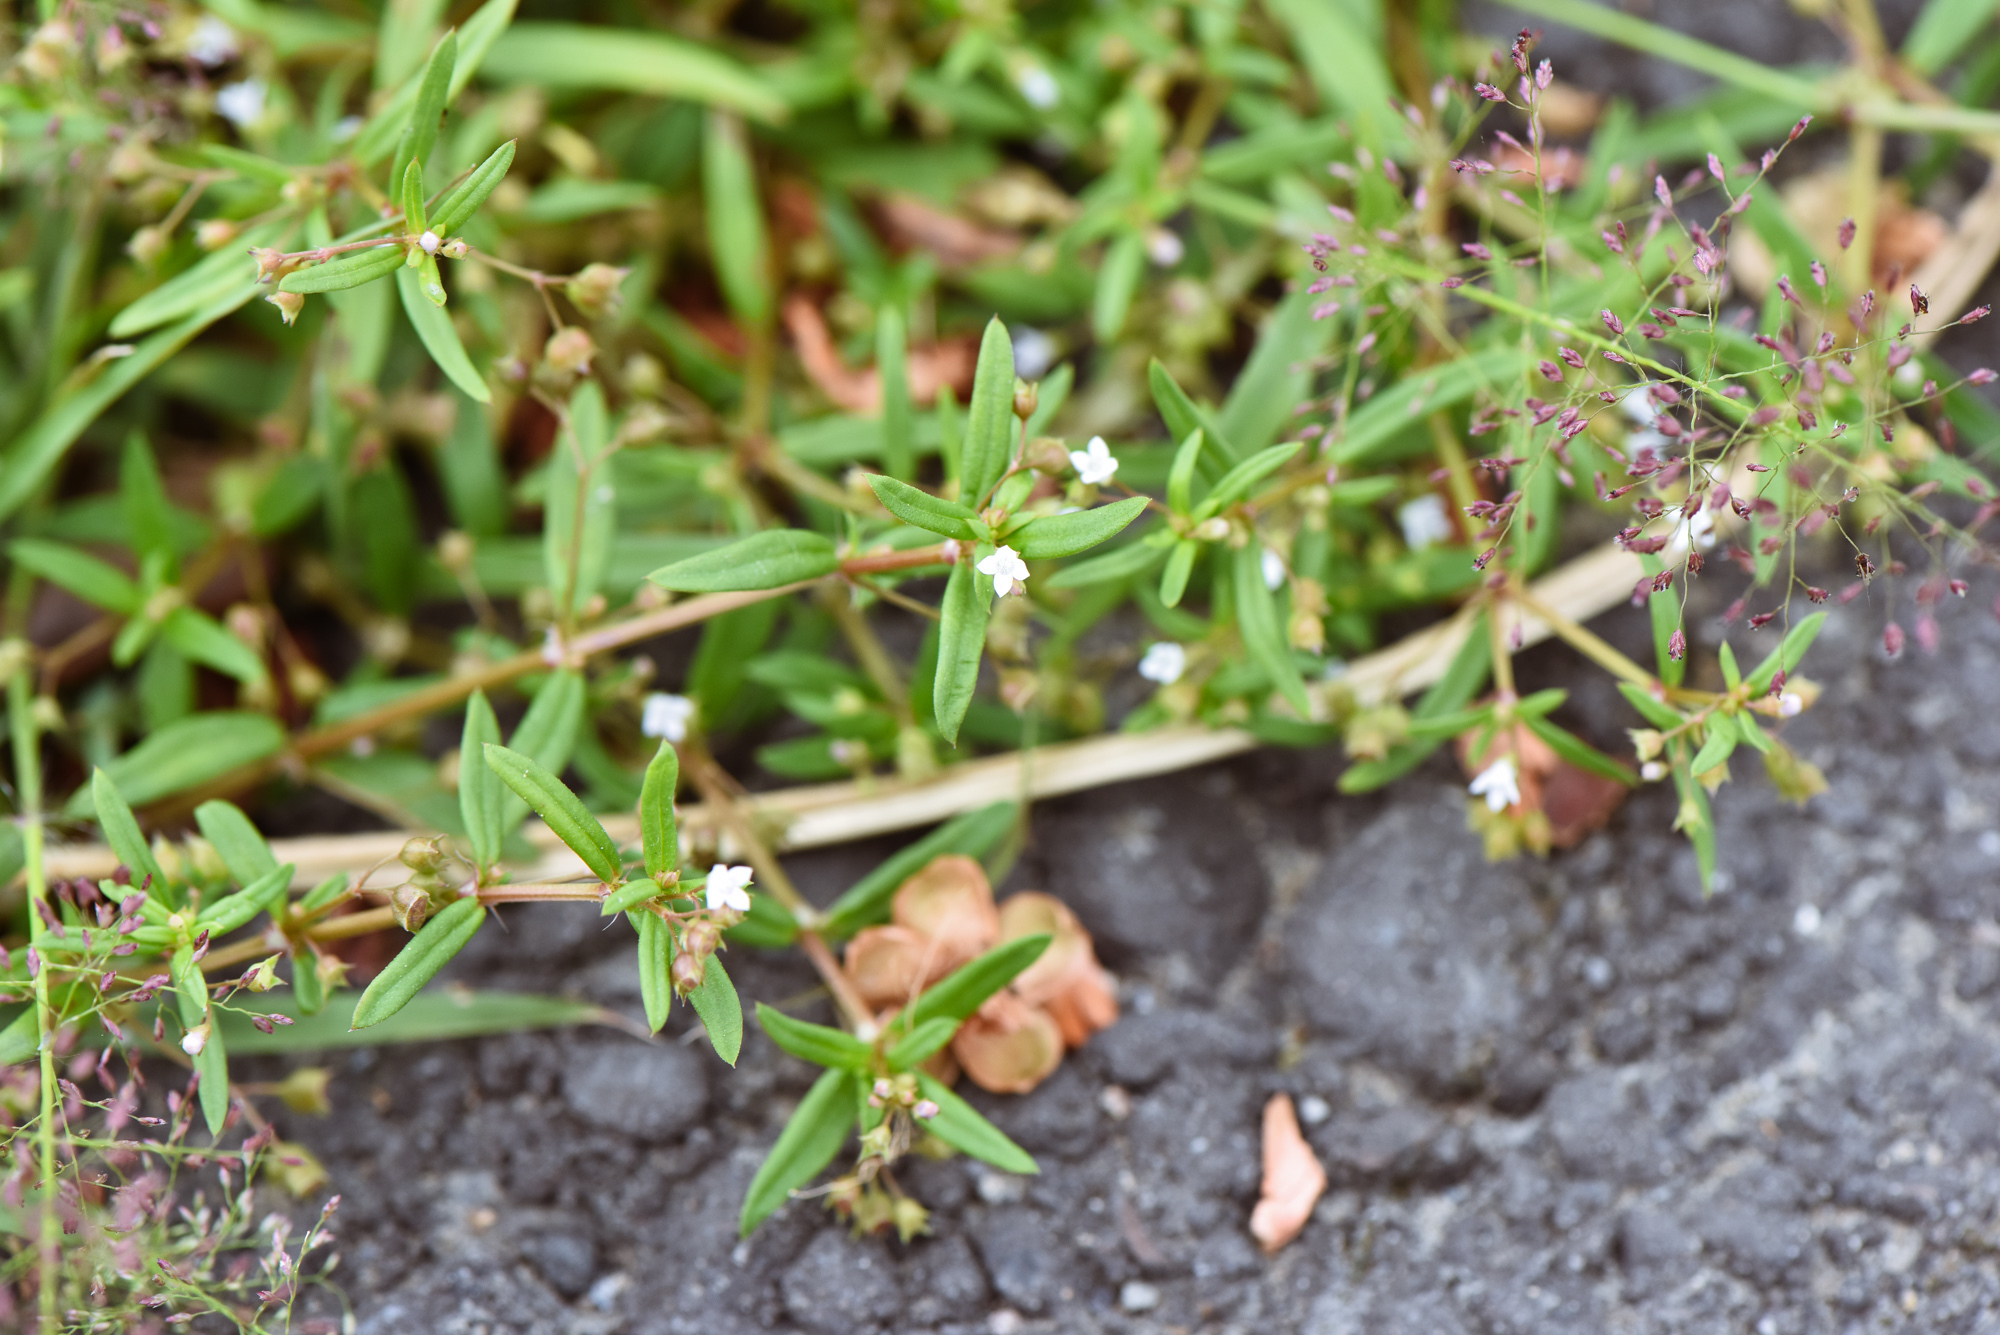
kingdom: Plantae
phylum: Tracheophyta
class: Magnoliopsida
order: Gentianales
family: Rubiaceae
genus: Oldenlandia
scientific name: Oldenlandia corymbosa
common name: Flat-top mille graines
